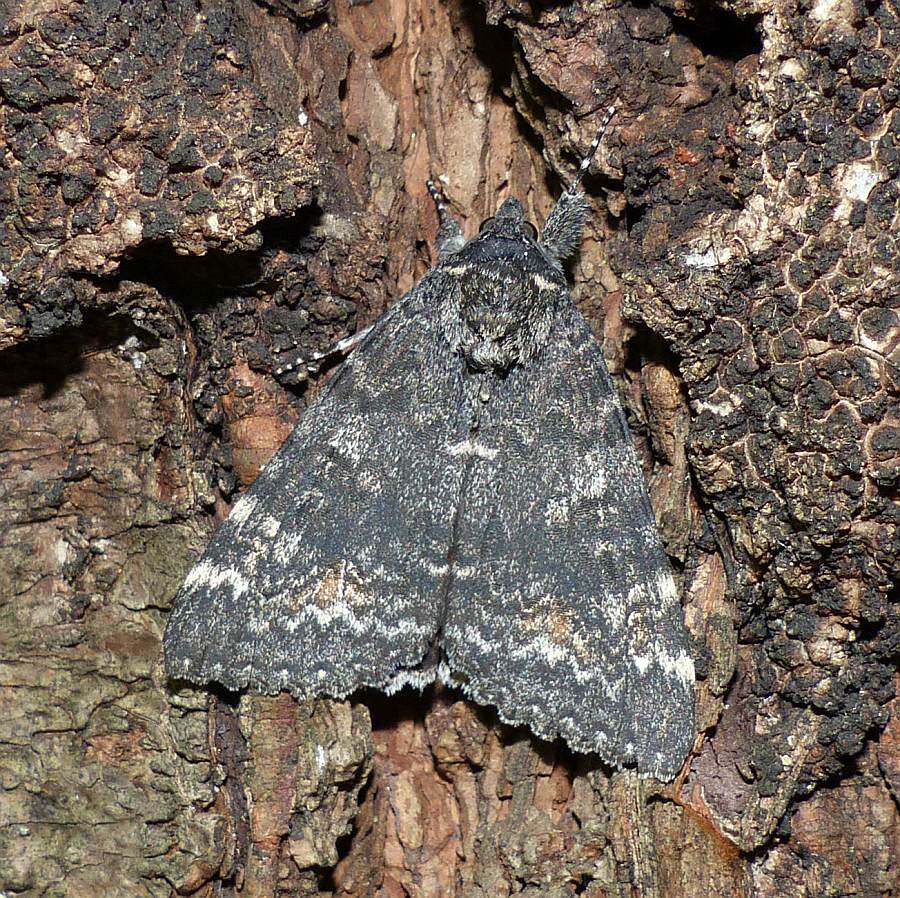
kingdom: Animalia
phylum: Arthropoda
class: Insecta
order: Lepidoptera
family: Erebidae
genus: Catocala
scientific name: Catocala briseis
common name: Briseis underwing
